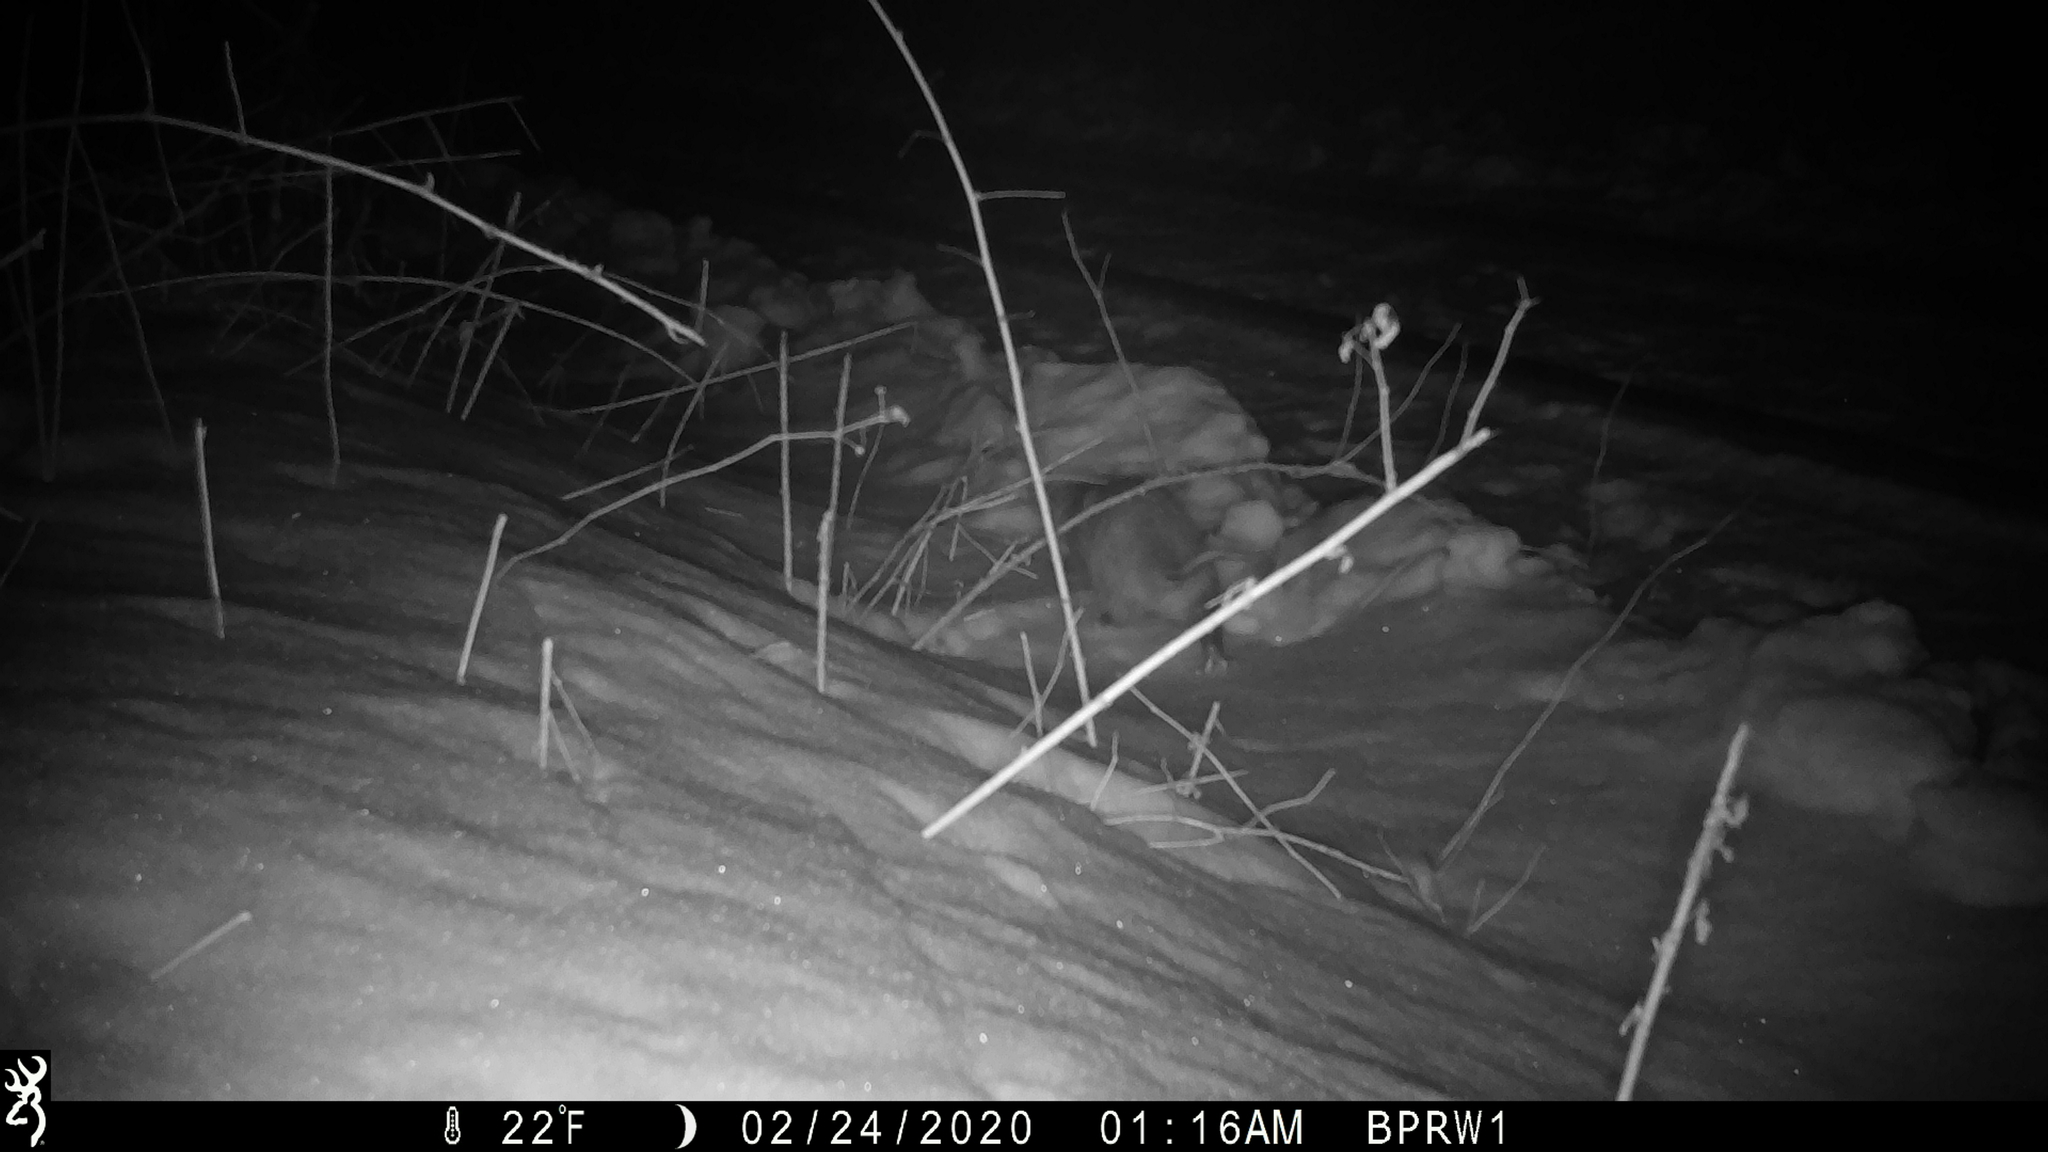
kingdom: Animalia
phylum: Chordata
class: Mammalia
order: Didelphimorphia
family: Didelphidae
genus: Didelphis
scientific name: Didelphis virginiana
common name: Virginia opossum
